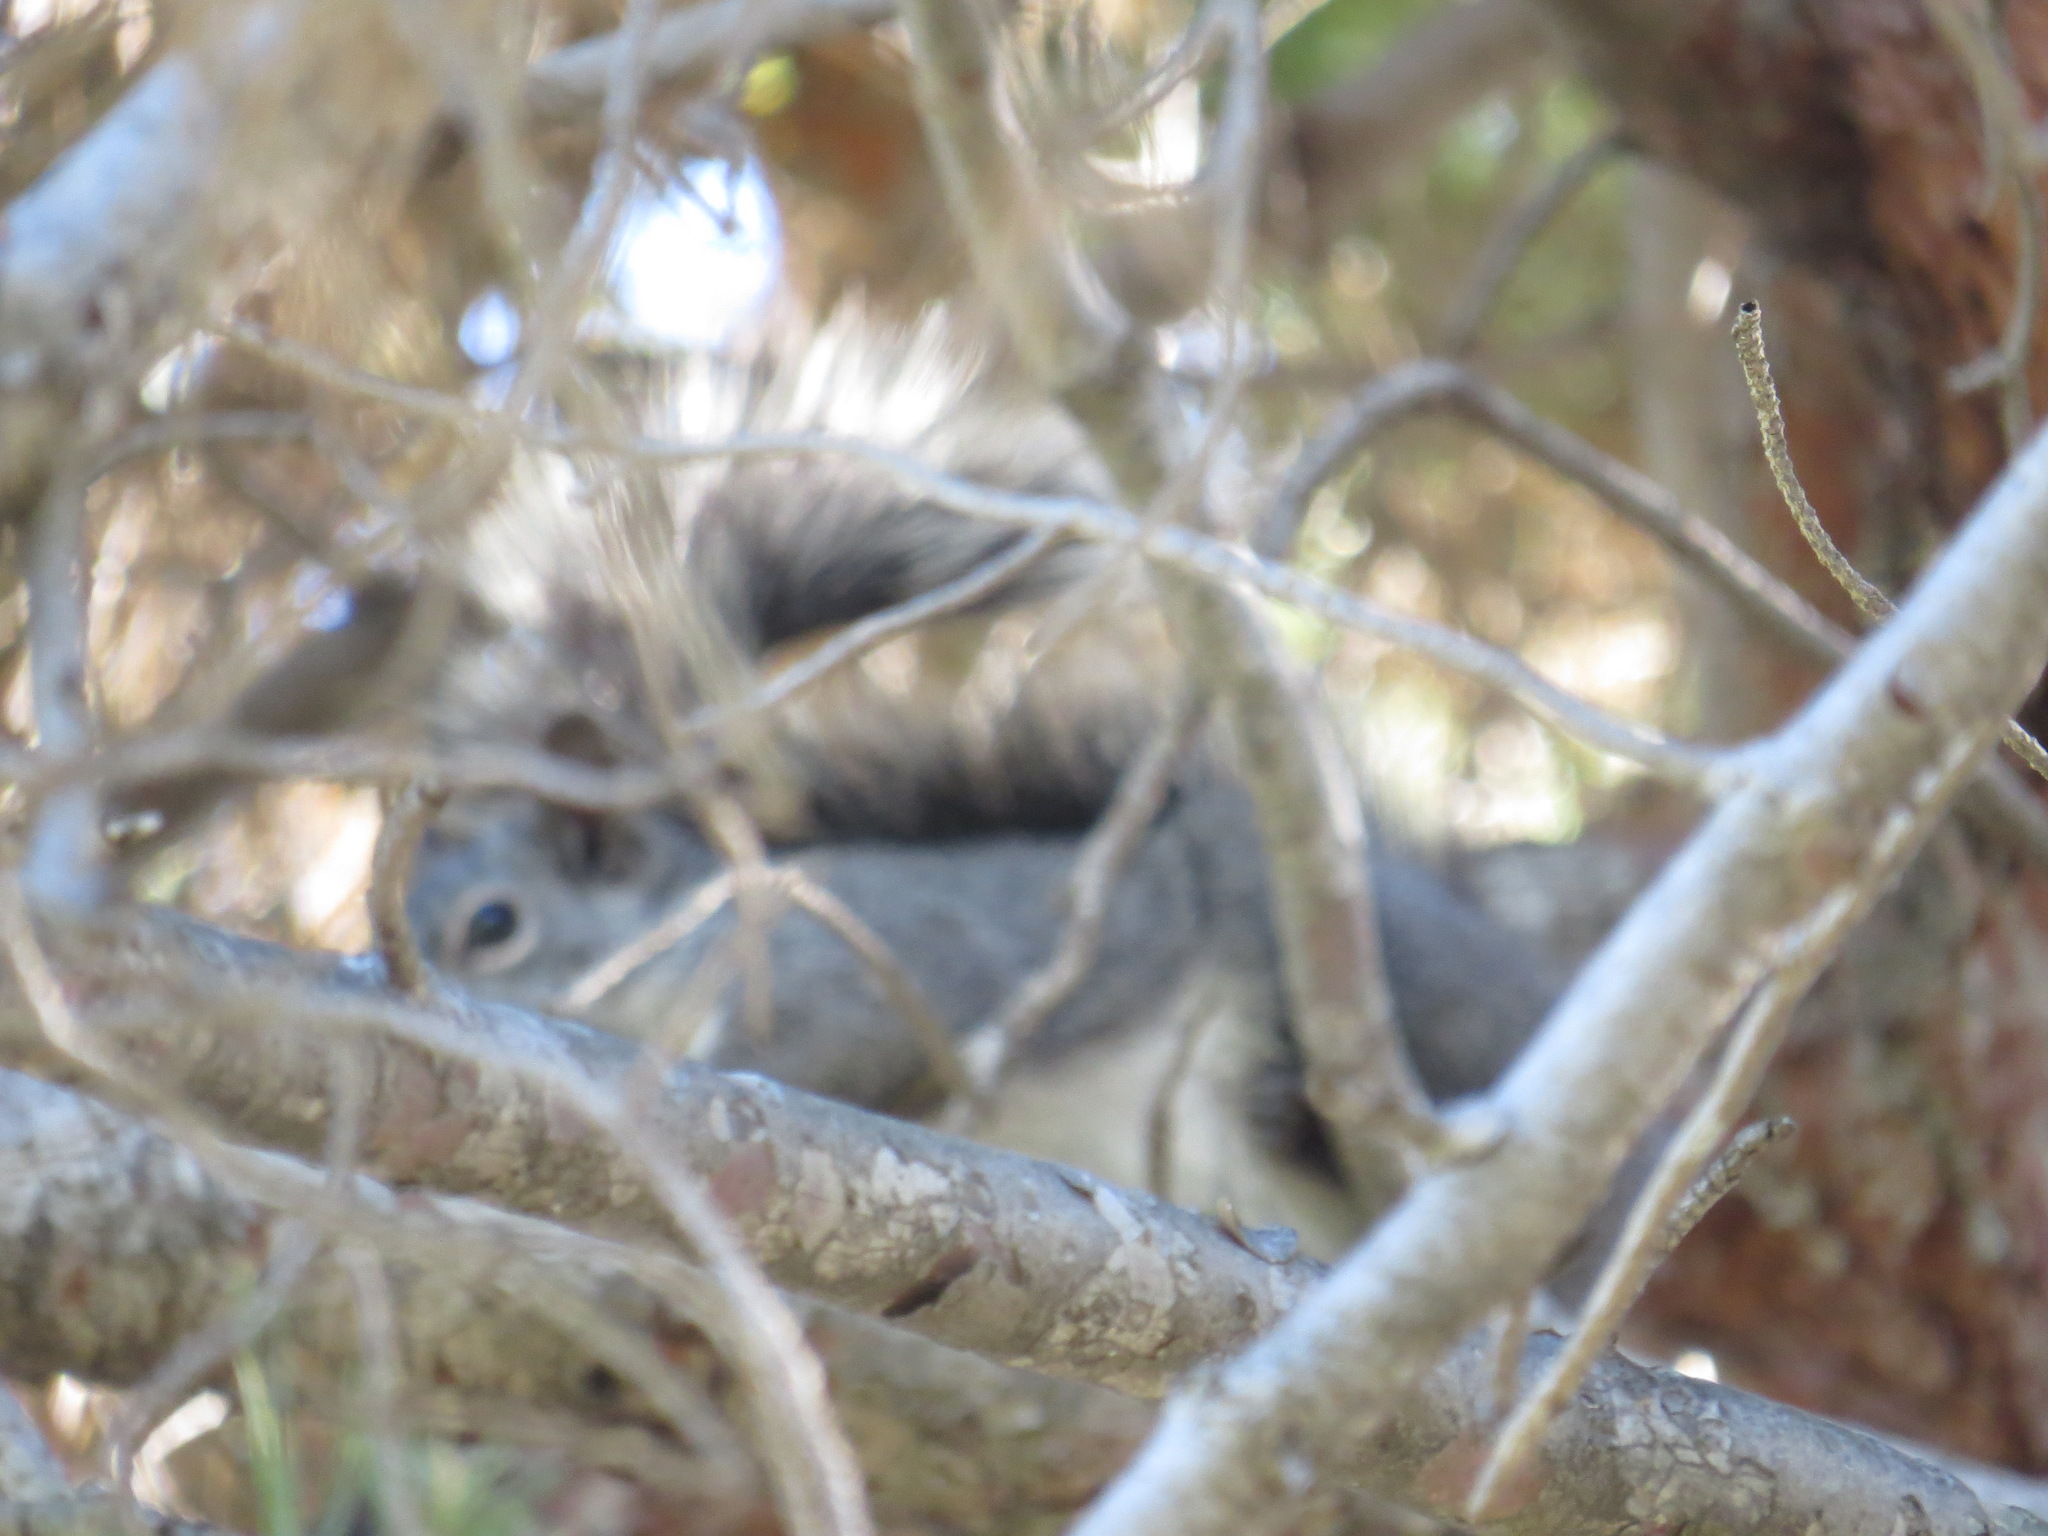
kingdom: Animalia
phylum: Chordata
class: Mammalia
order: Rodentia
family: Sciuridae
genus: Sciurus
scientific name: Sciurus griseus
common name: Western gray squirrel
